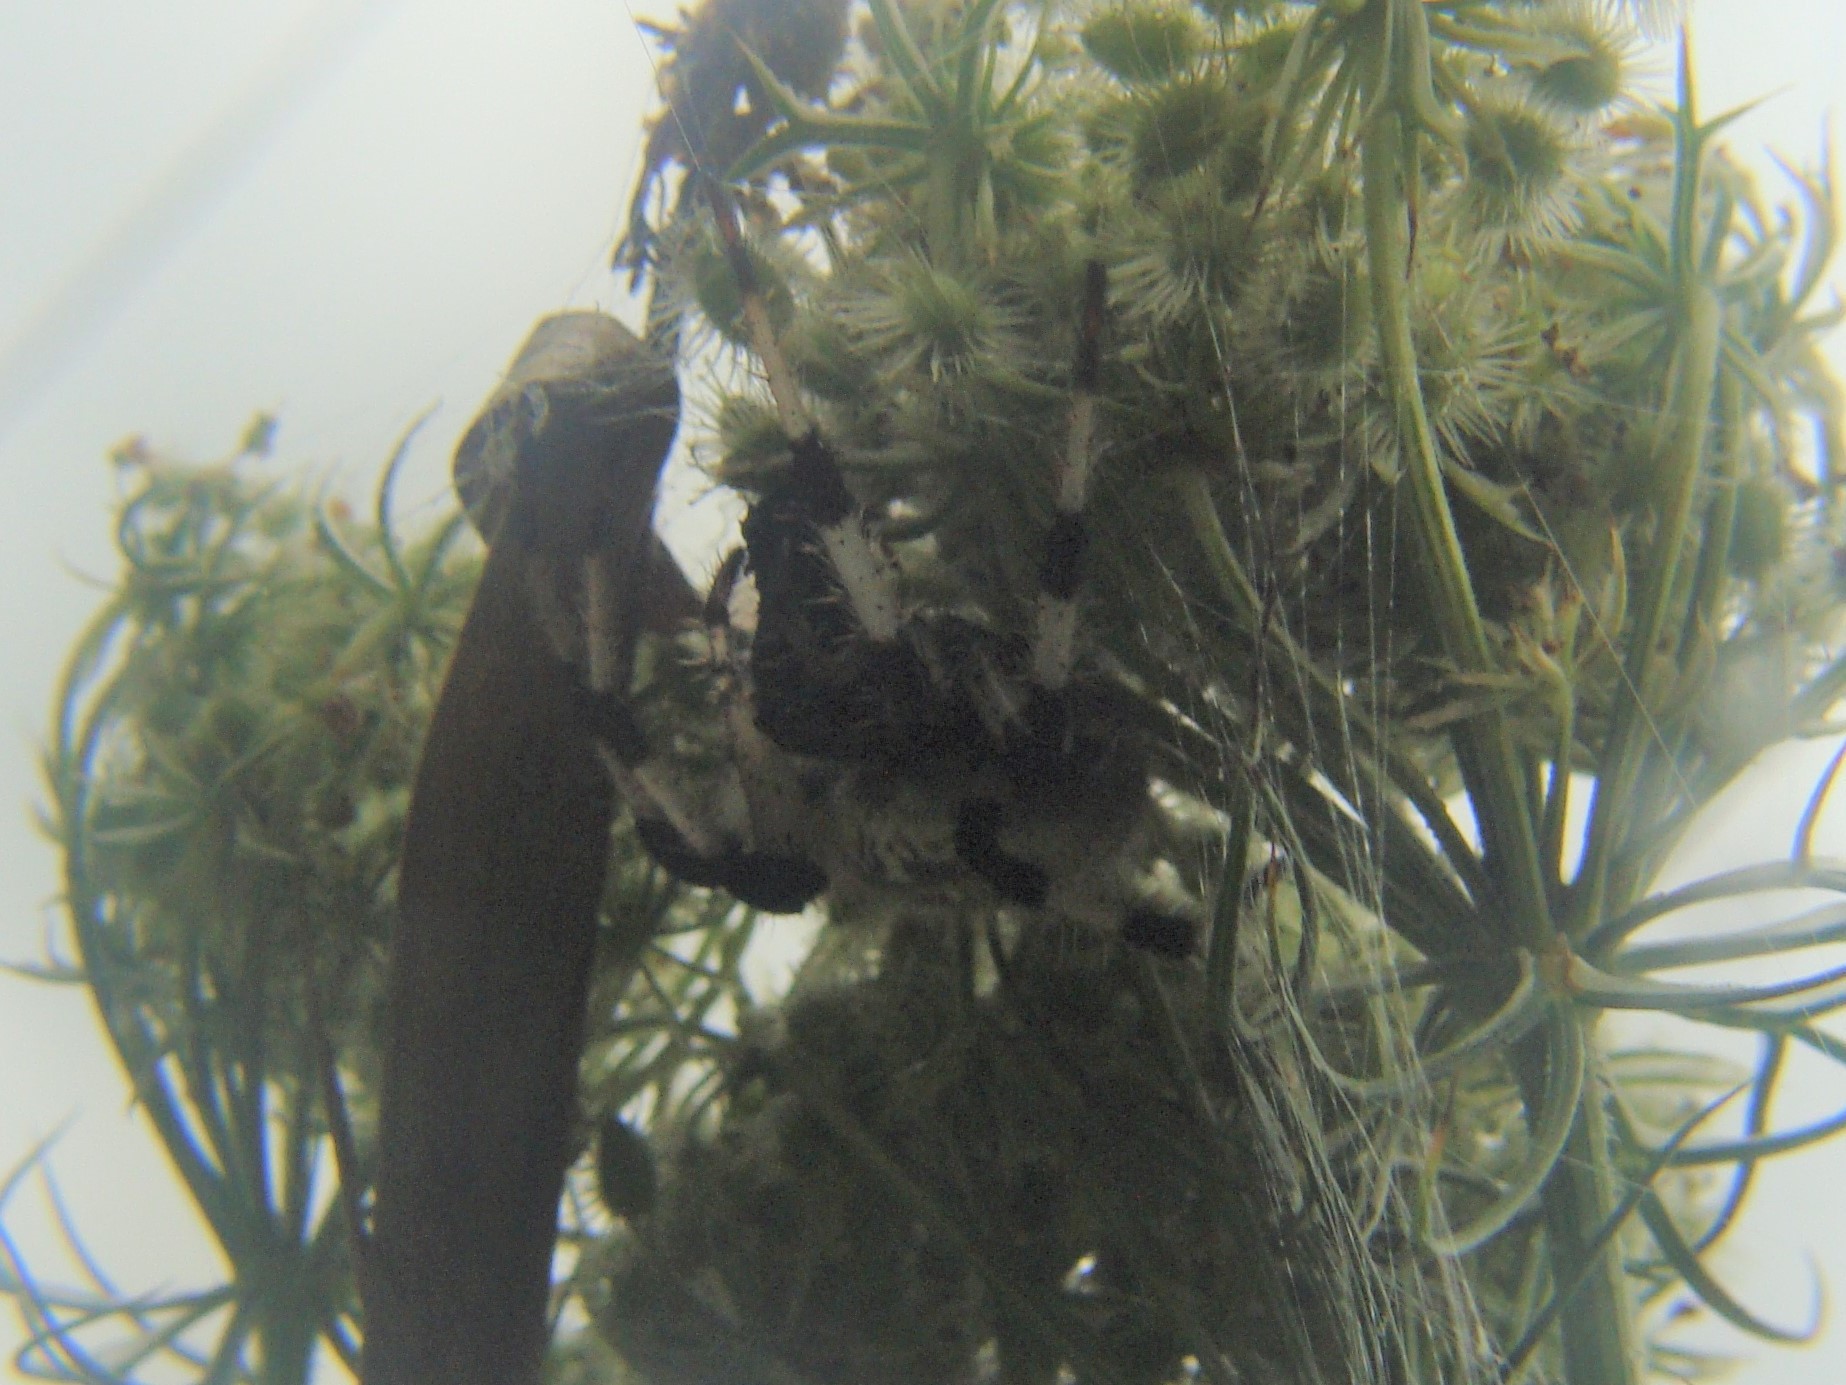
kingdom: Animalia
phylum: Arthropoda
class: Arachnida
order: Araneae
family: Araneidae
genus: Araneus
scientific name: Araneus trifolium
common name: Shamrock orbweaver
